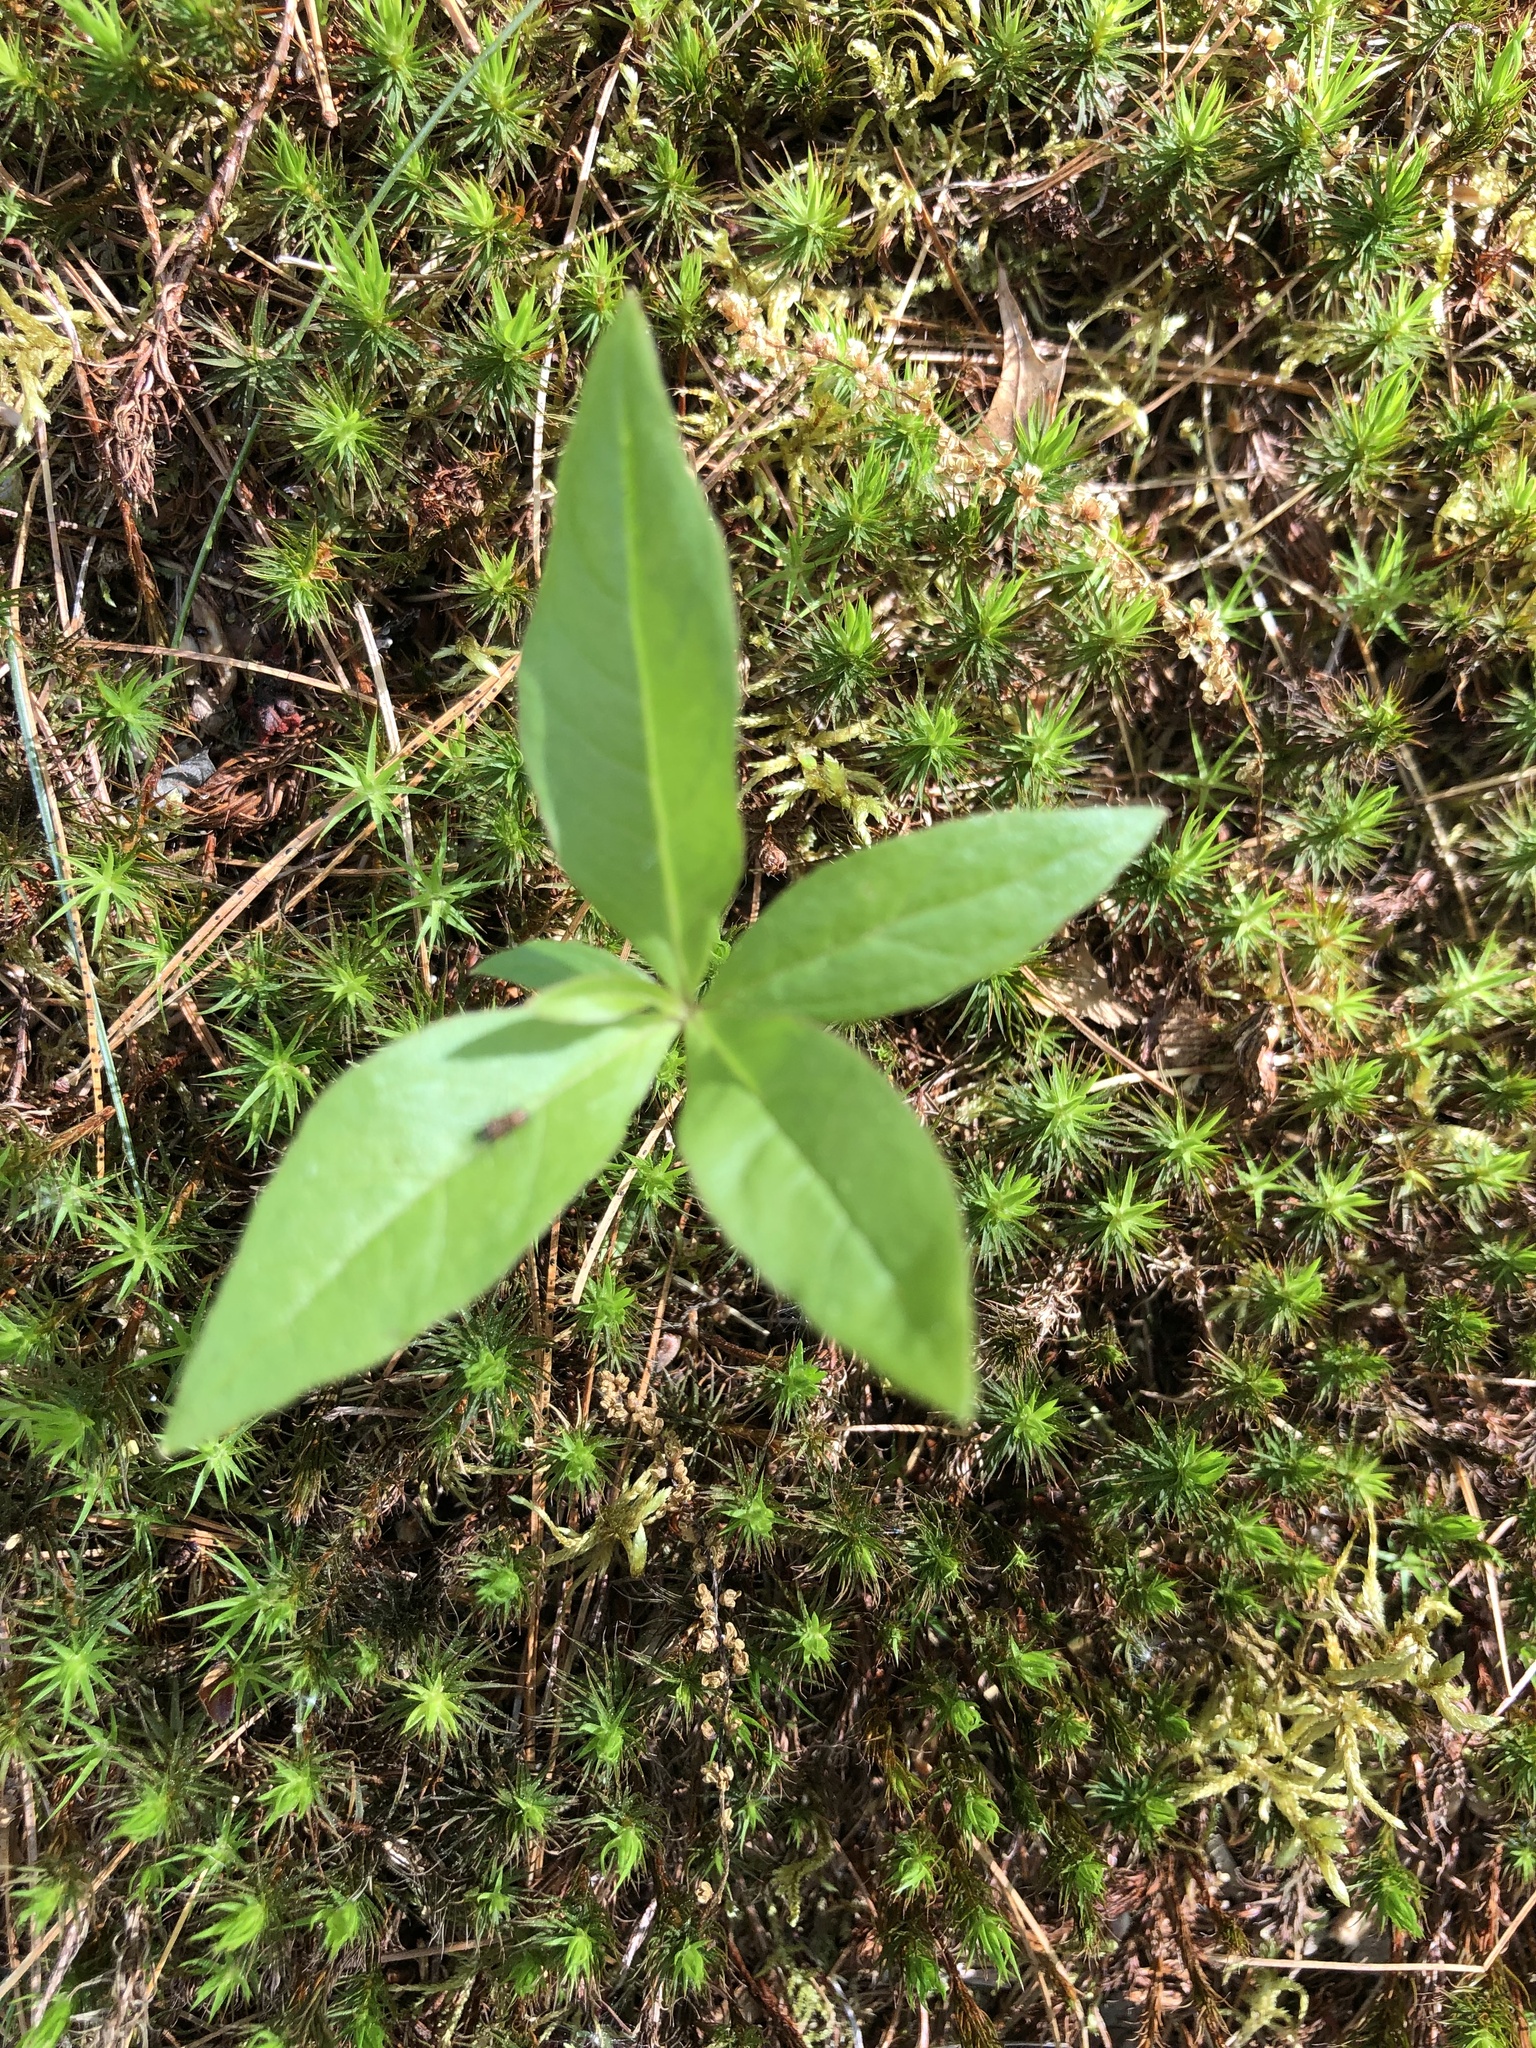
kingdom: Plantae
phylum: Tracheophyta
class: Magnoliopsida
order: Ericales
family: Primulaceae
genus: Lysimachia
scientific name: Lysimachia borealis
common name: American starflower
